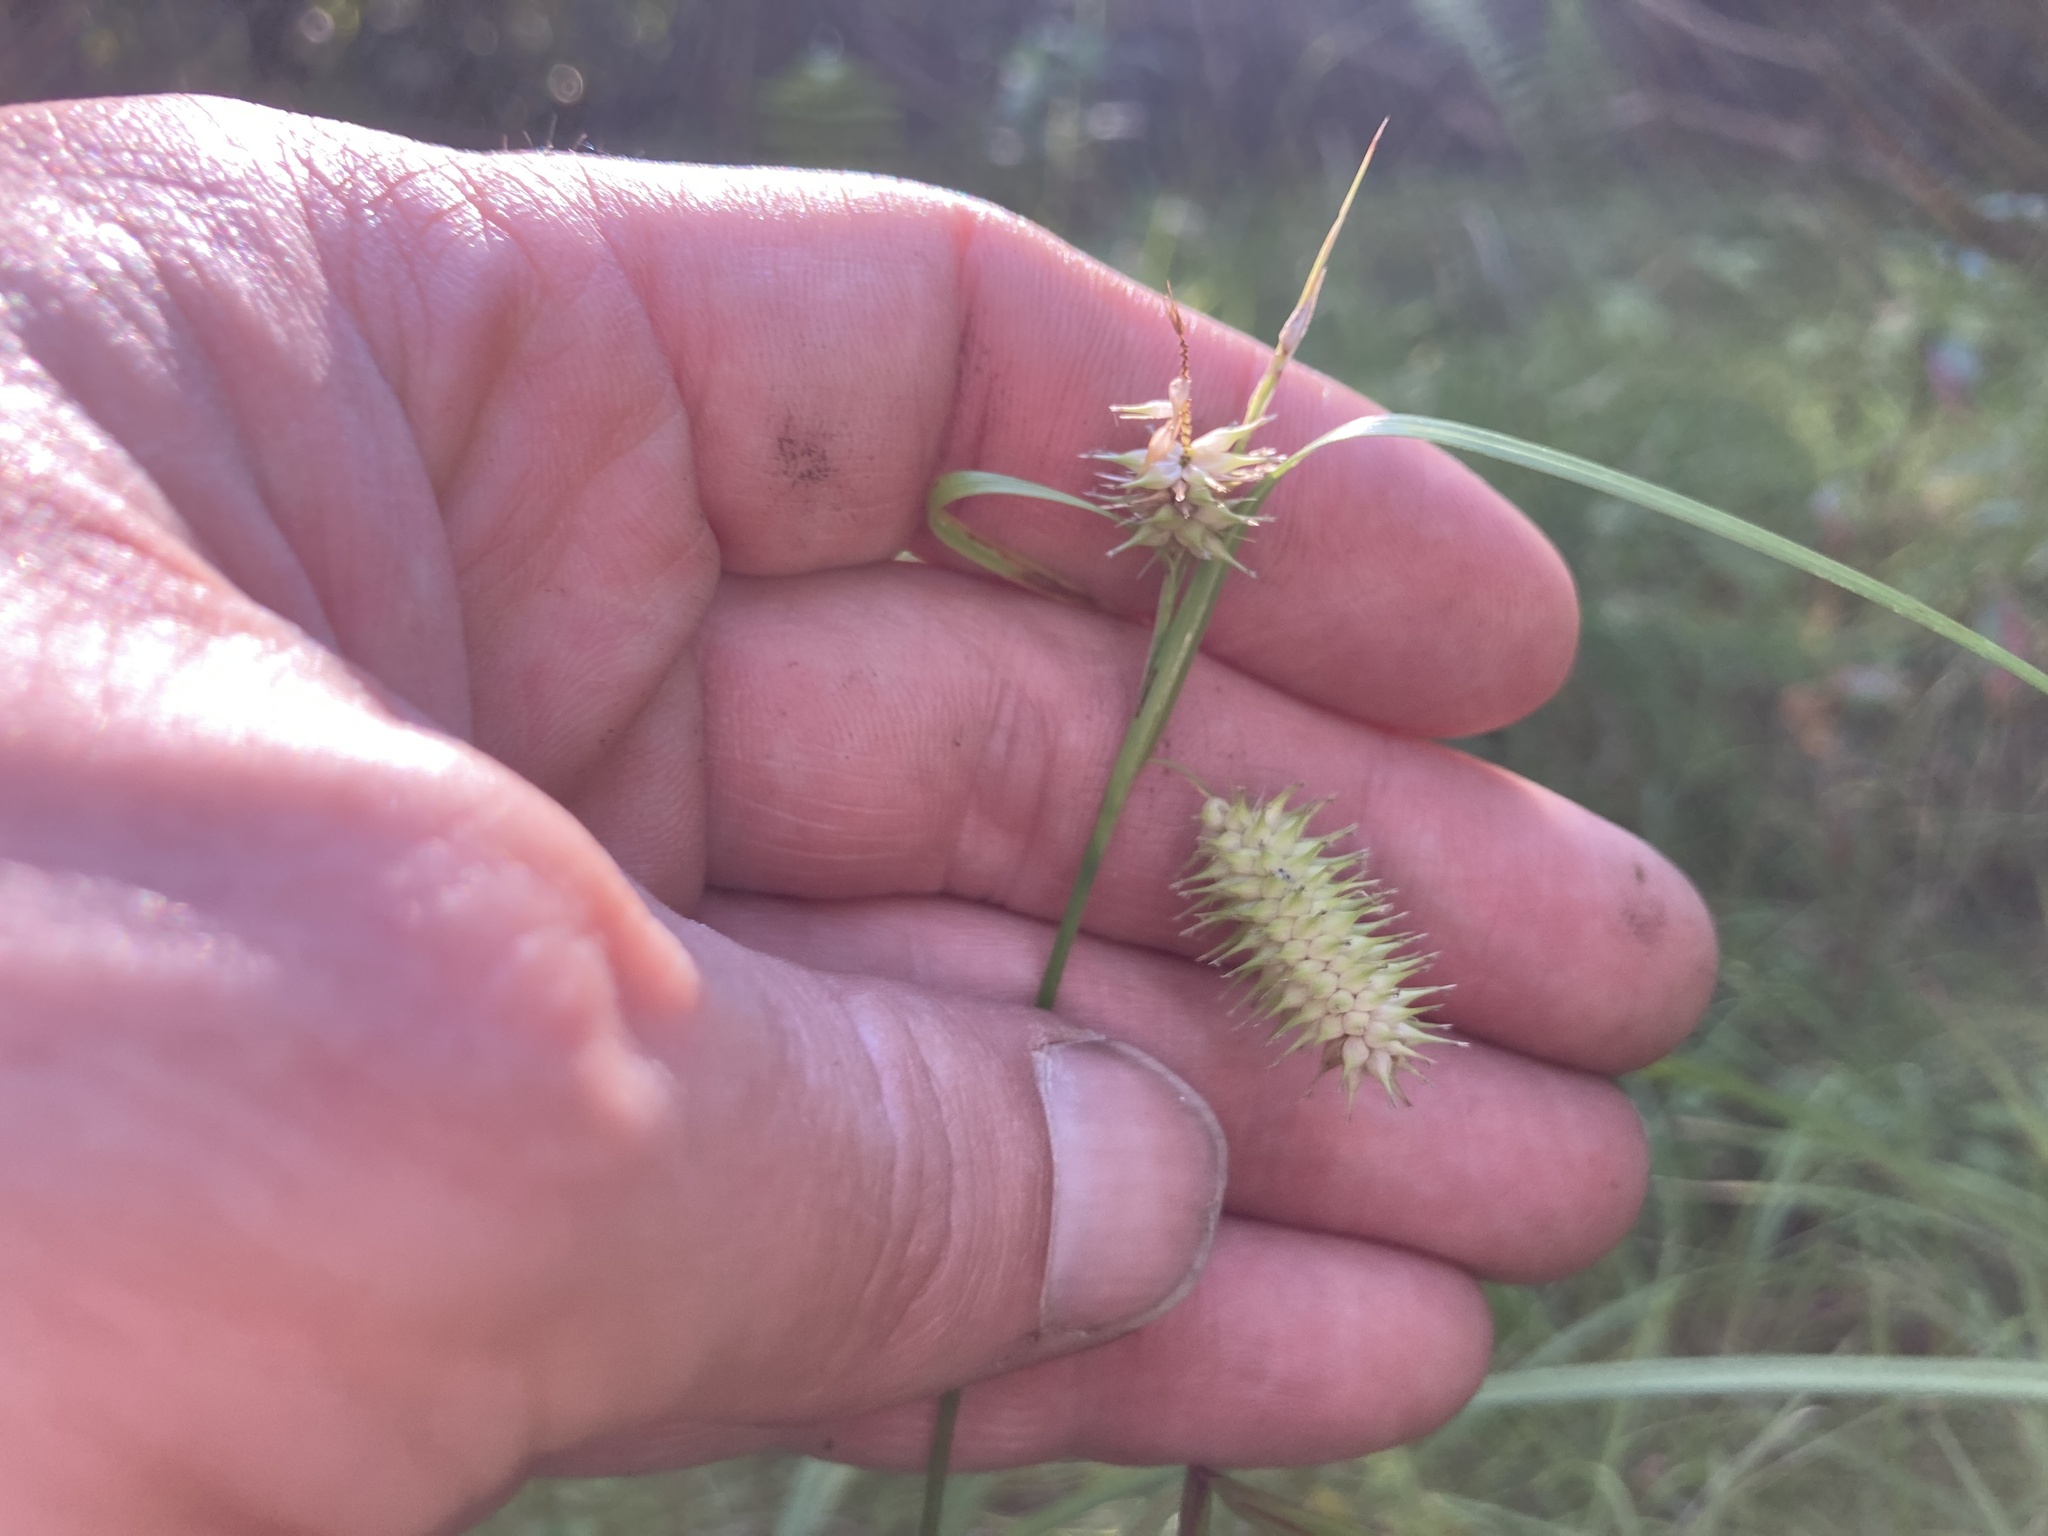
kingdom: Plantae
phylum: Tracheophyta
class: Liliopsida
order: Poales
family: Cyperaceae
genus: Carex
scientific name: Carex hystericina
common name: Bottlebrush sedge
